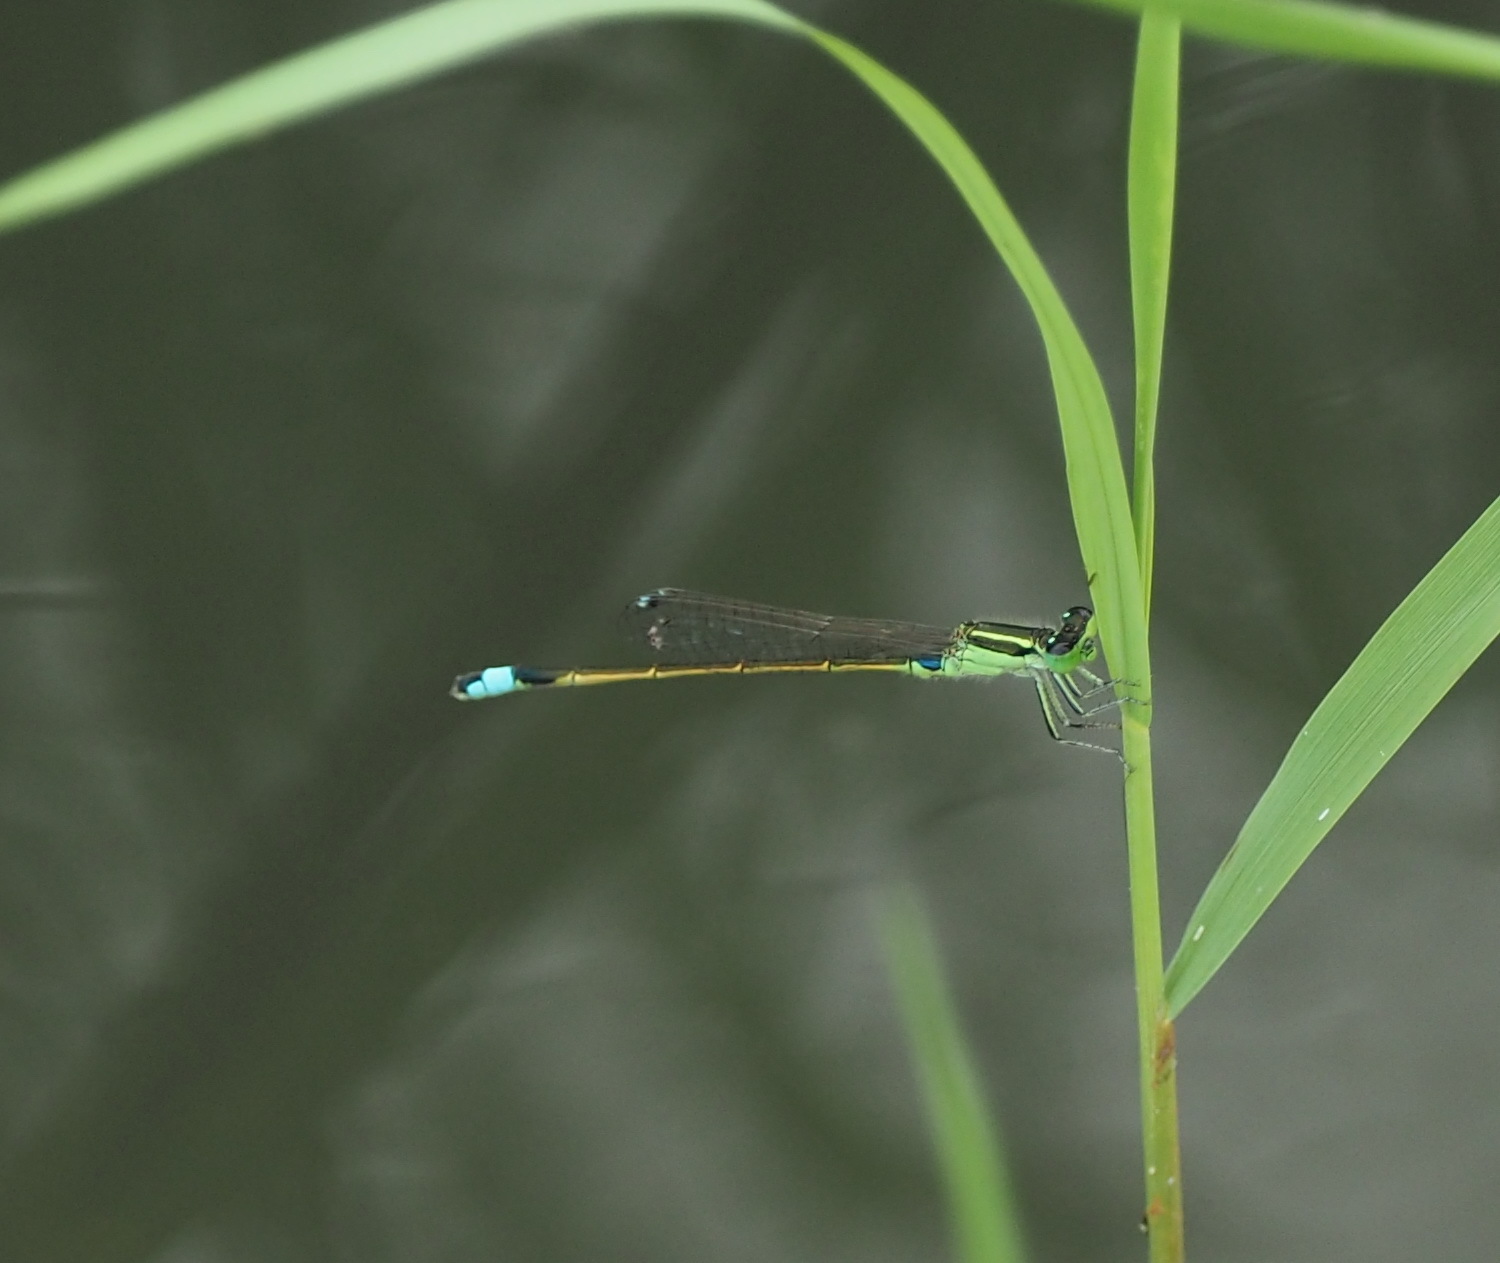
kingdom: Animalia
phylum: Arthropoda
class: Insecta
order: Odonata
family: Coenagrionidae
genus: Ischnura
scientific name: Ischnura senegalensis
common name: Tropical bluetail
